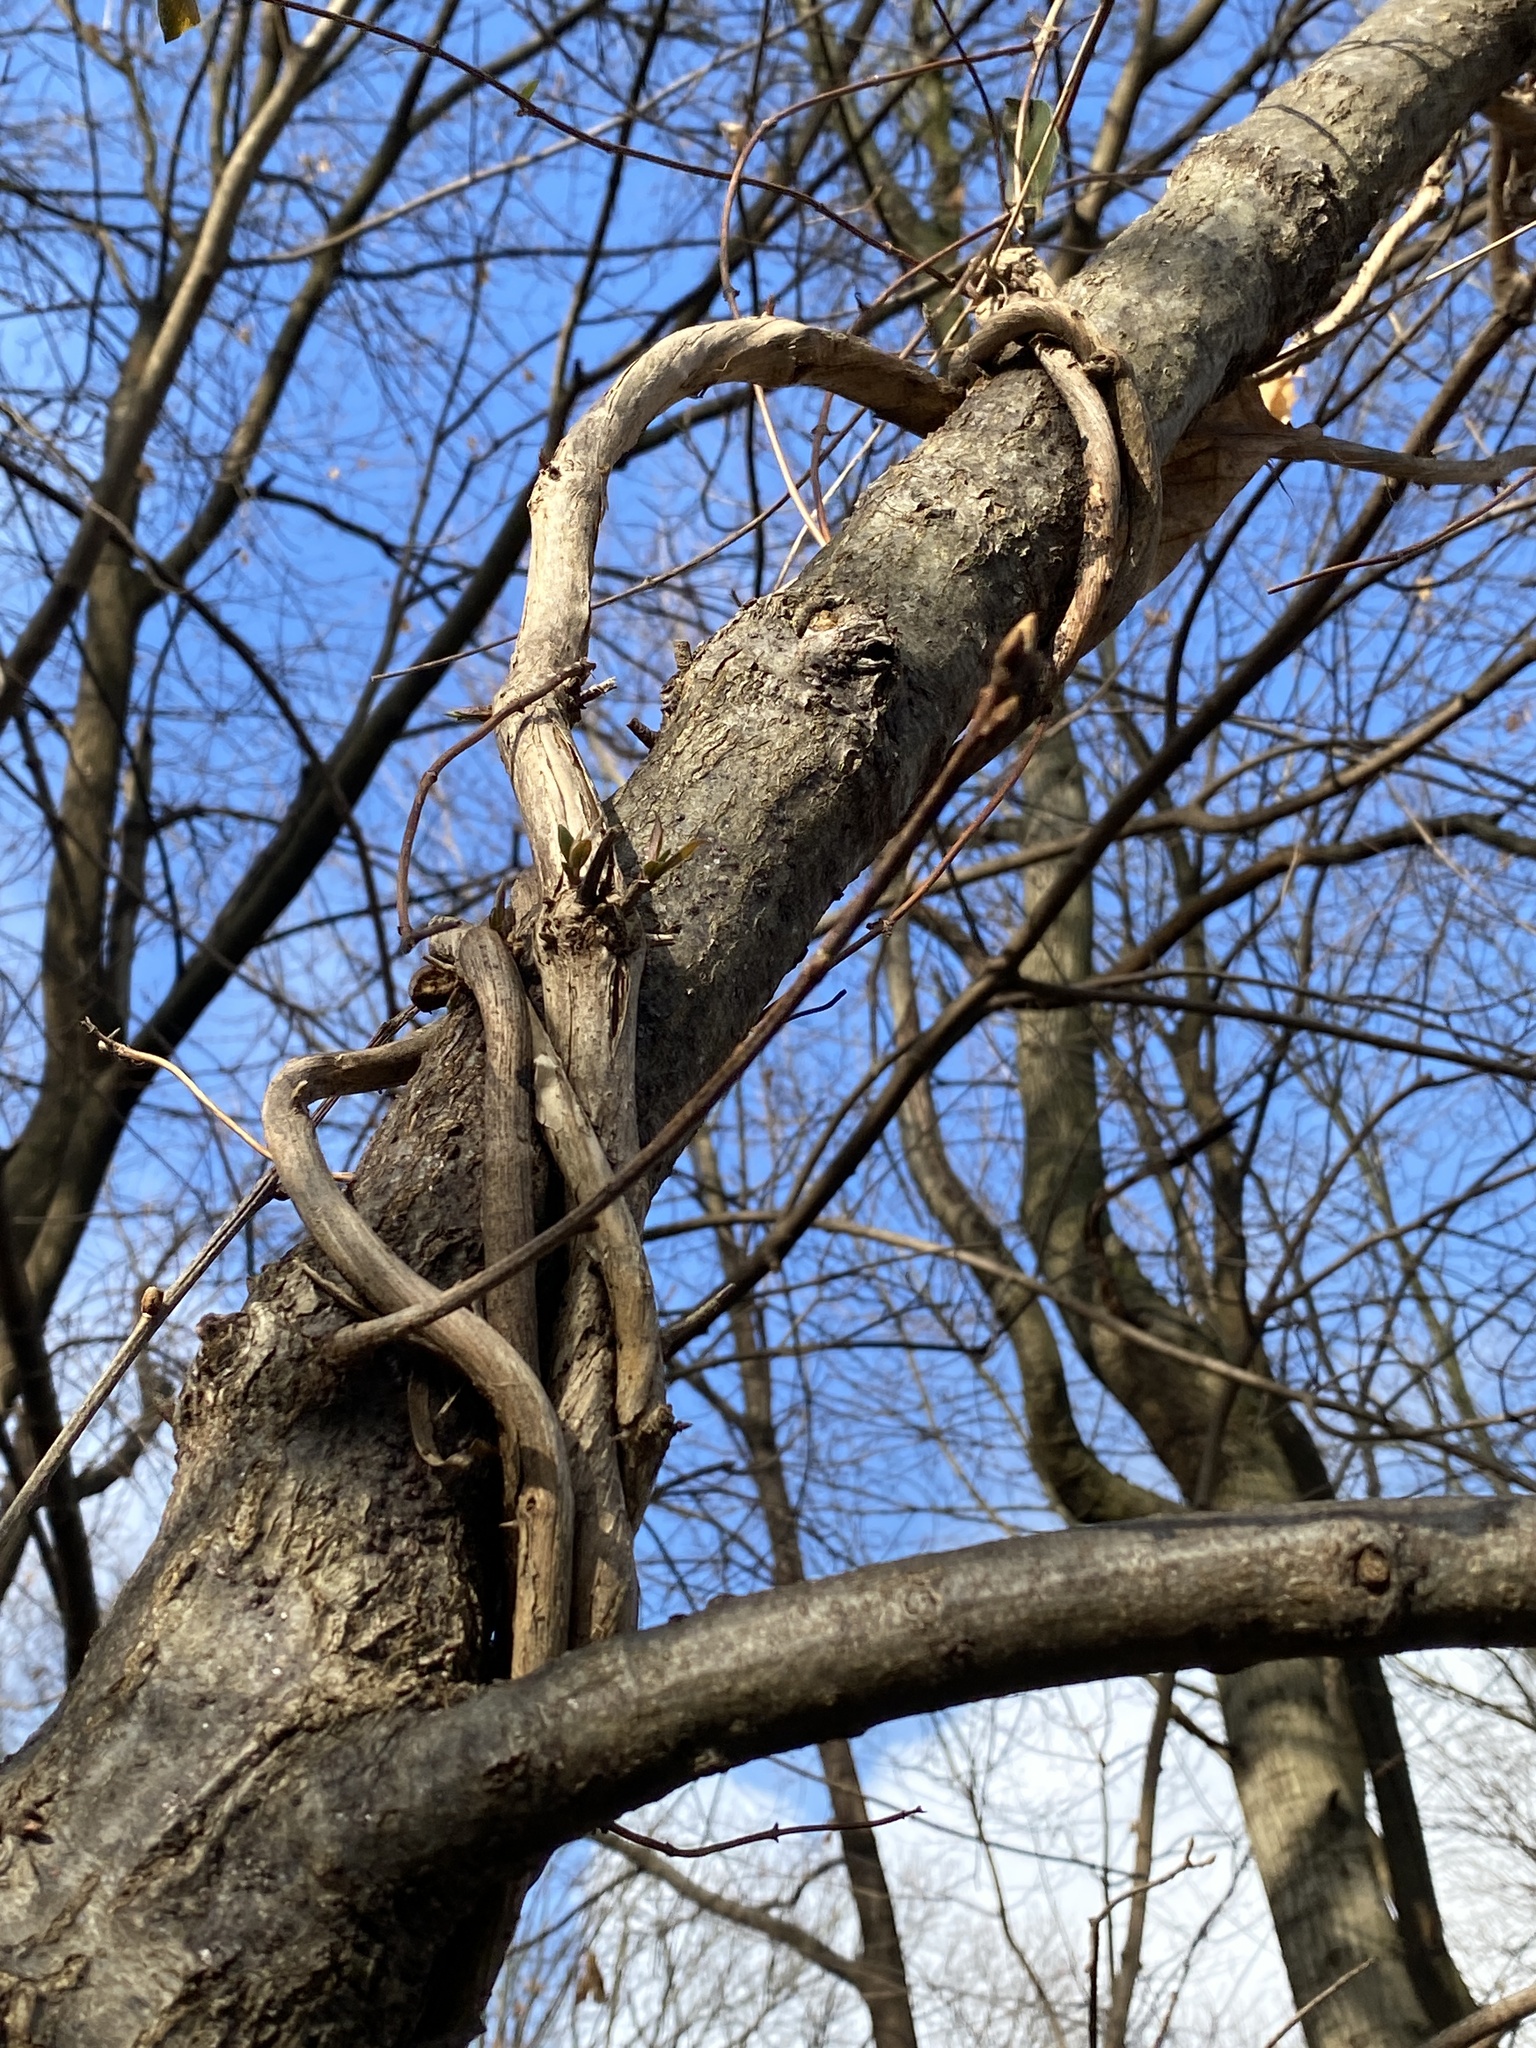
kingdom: Plantae
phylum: Tracheophyta
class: Magnoliopsida
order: Dipsacales
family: Caprifoliaceae
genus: Lonicera
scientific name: Lonicera japonica
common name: Japanese honeysuckle
